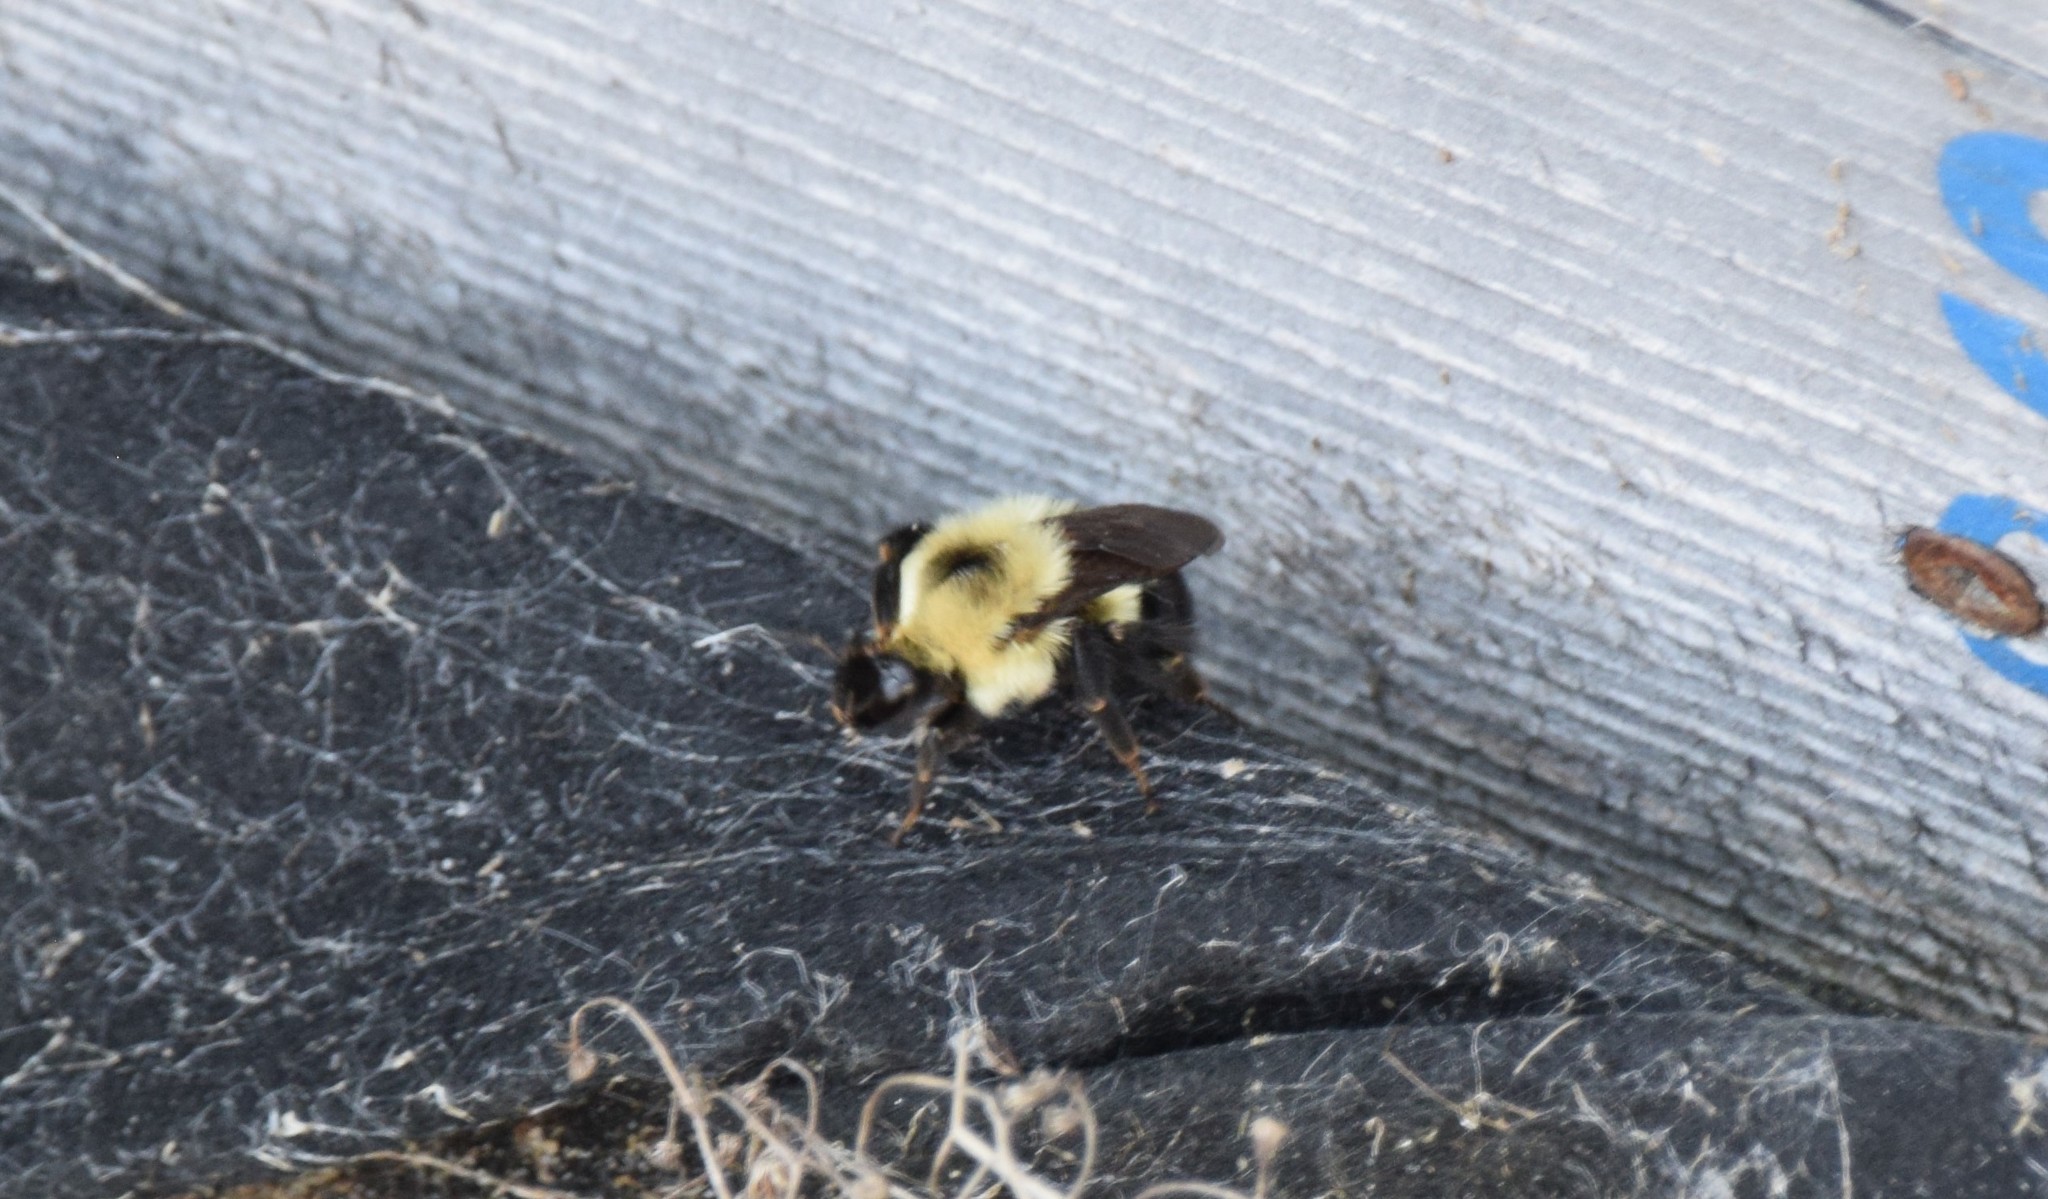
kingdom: Animalia
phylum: Arthropoda
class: Insecta
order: Hymenoptera
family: Apidae
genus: Bombus
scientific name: Bombus bimaculatus
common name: Two-spotted bumble bee
